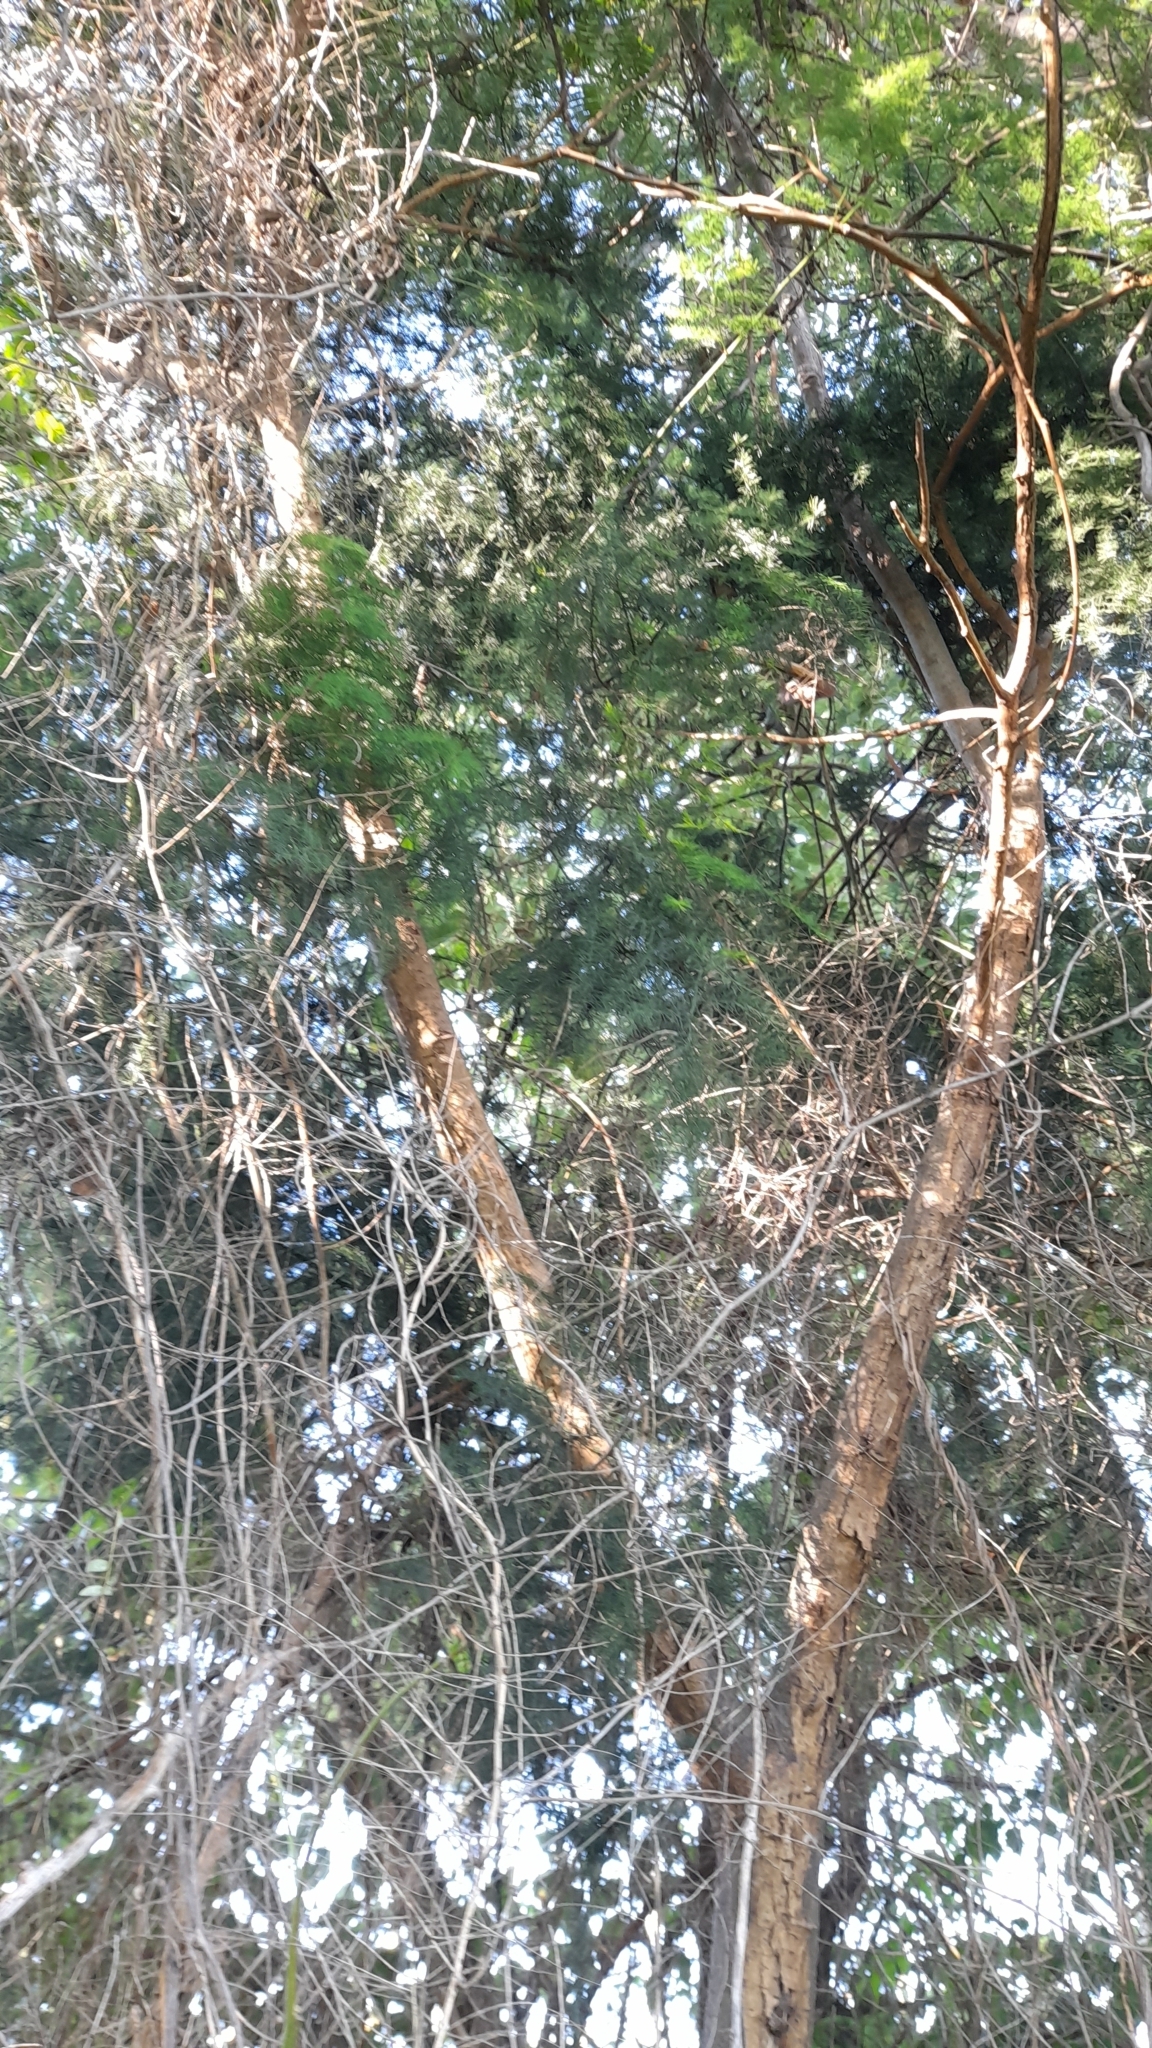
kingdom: Plantae
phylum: Tracheophyta
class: Liliopsida
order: Asparagales
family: Asparagaceae
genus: Asparagus
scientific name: Asparagus setaceus
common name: Common asparagus fern
